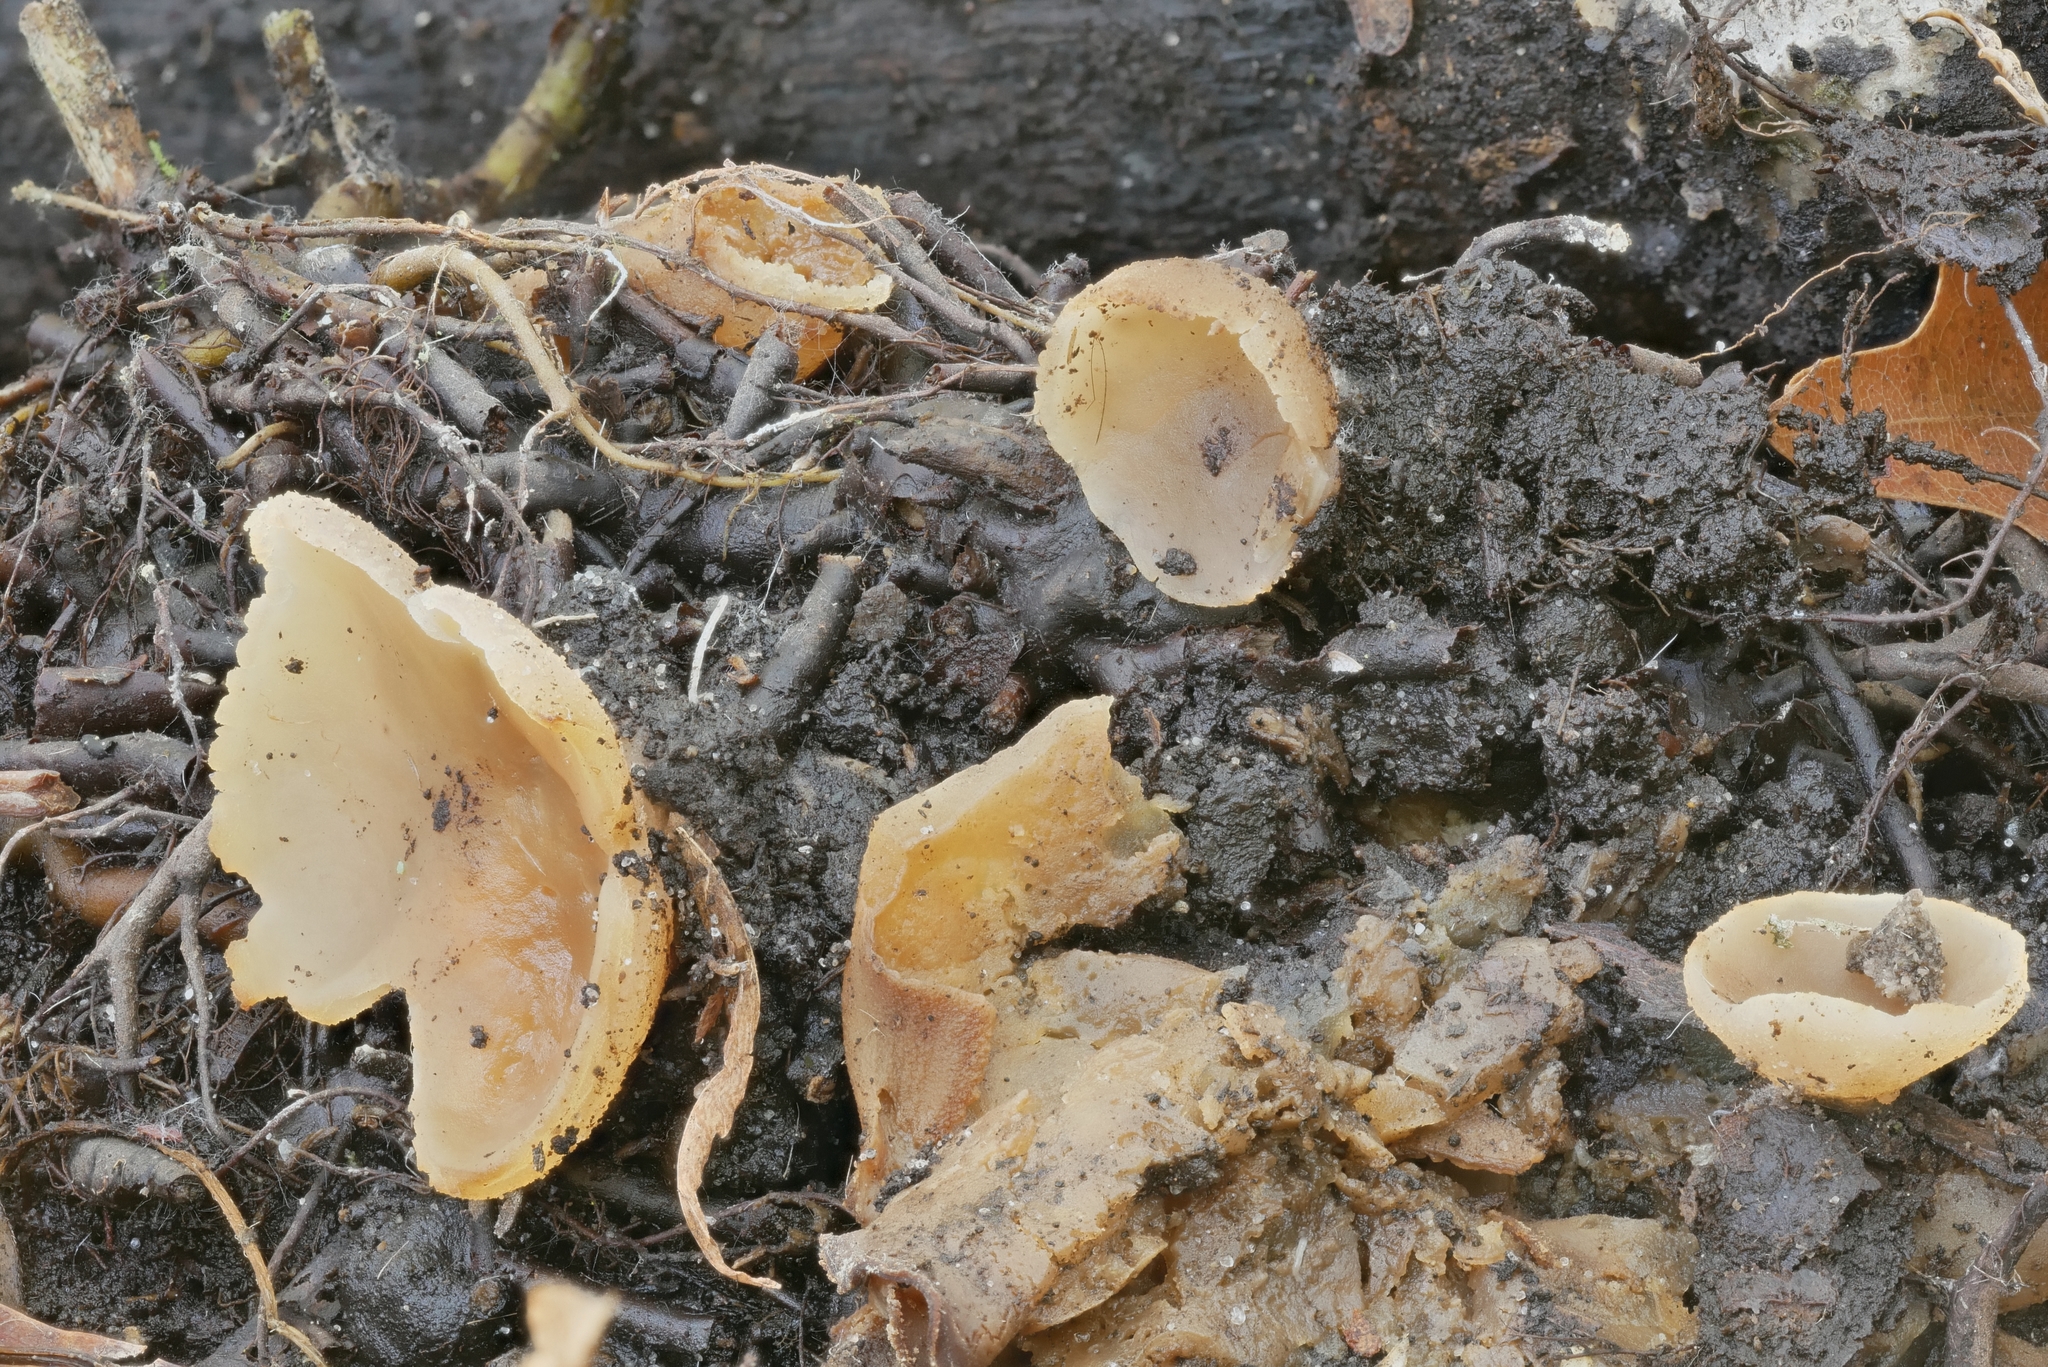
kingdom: Fungi
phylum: Ascomycota
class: Pezizomycetes
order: Pezizales
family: Pezizaceae
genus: Pachyella
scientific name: Pachyella celtica
